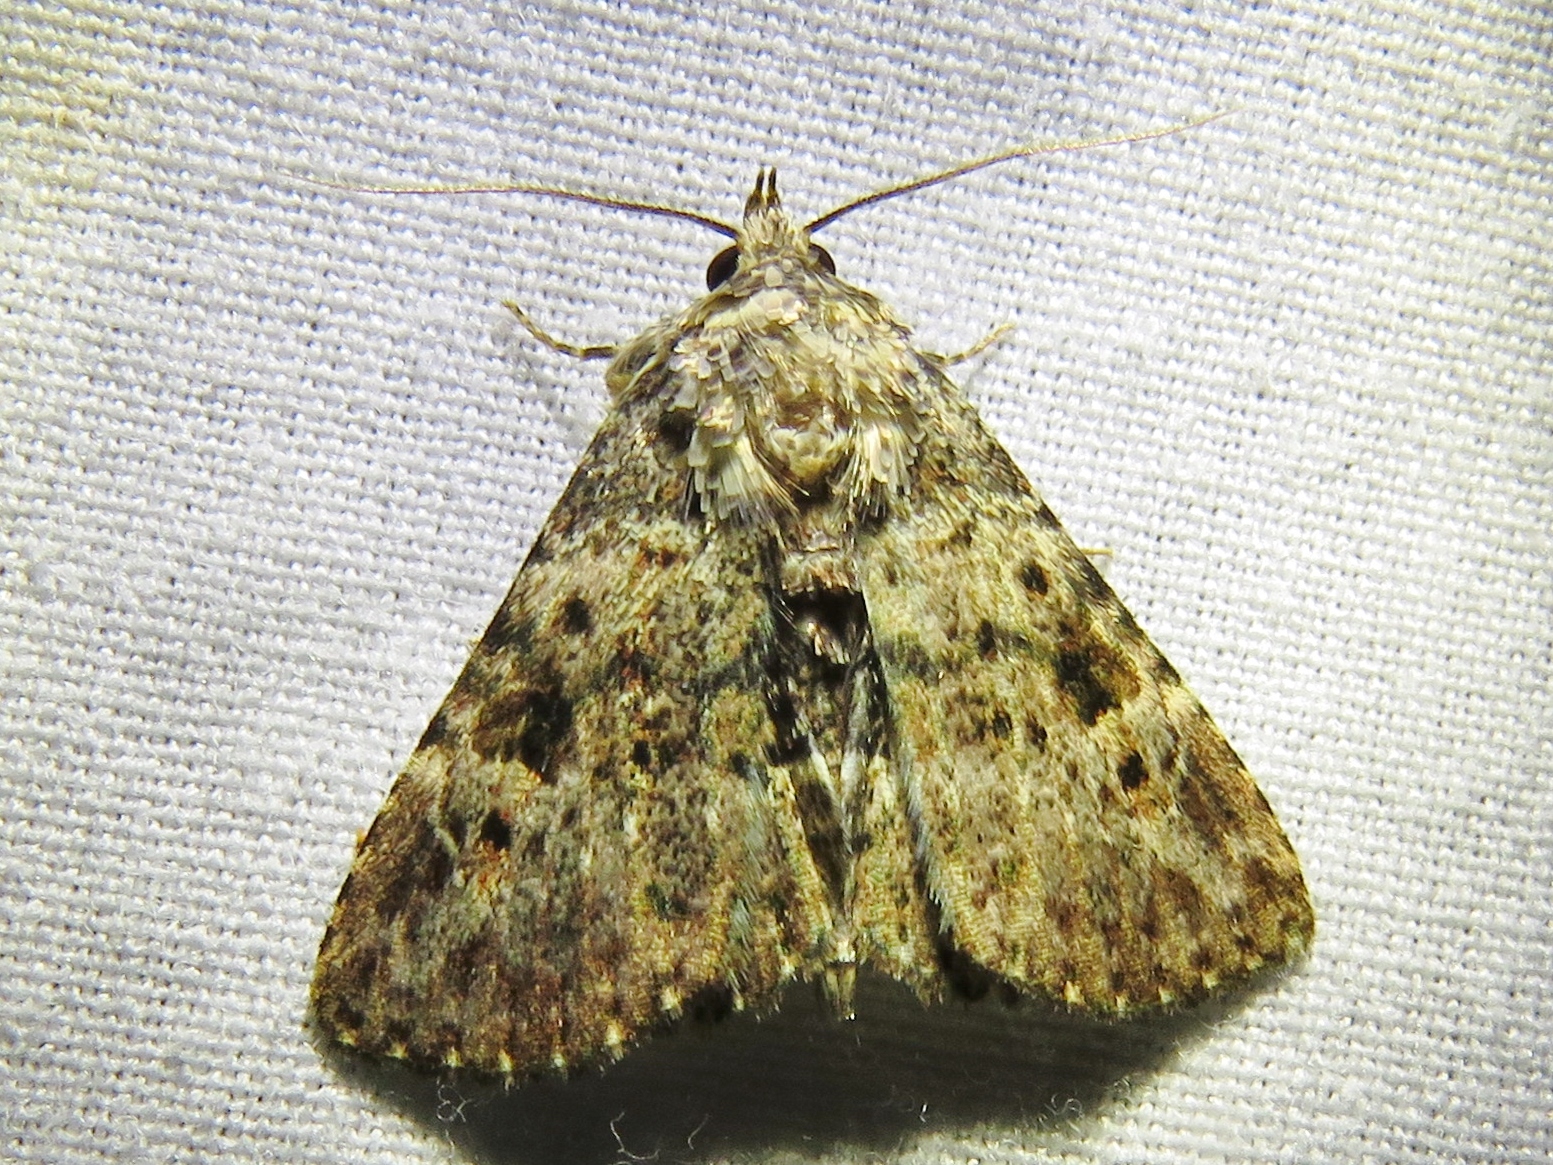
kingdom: Animalia
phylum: Arthropoda
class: Insecta
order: Lepidoptera
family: Erebidae
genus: Metalectra
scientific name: Metalectra discalis
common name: Common fungus moth
